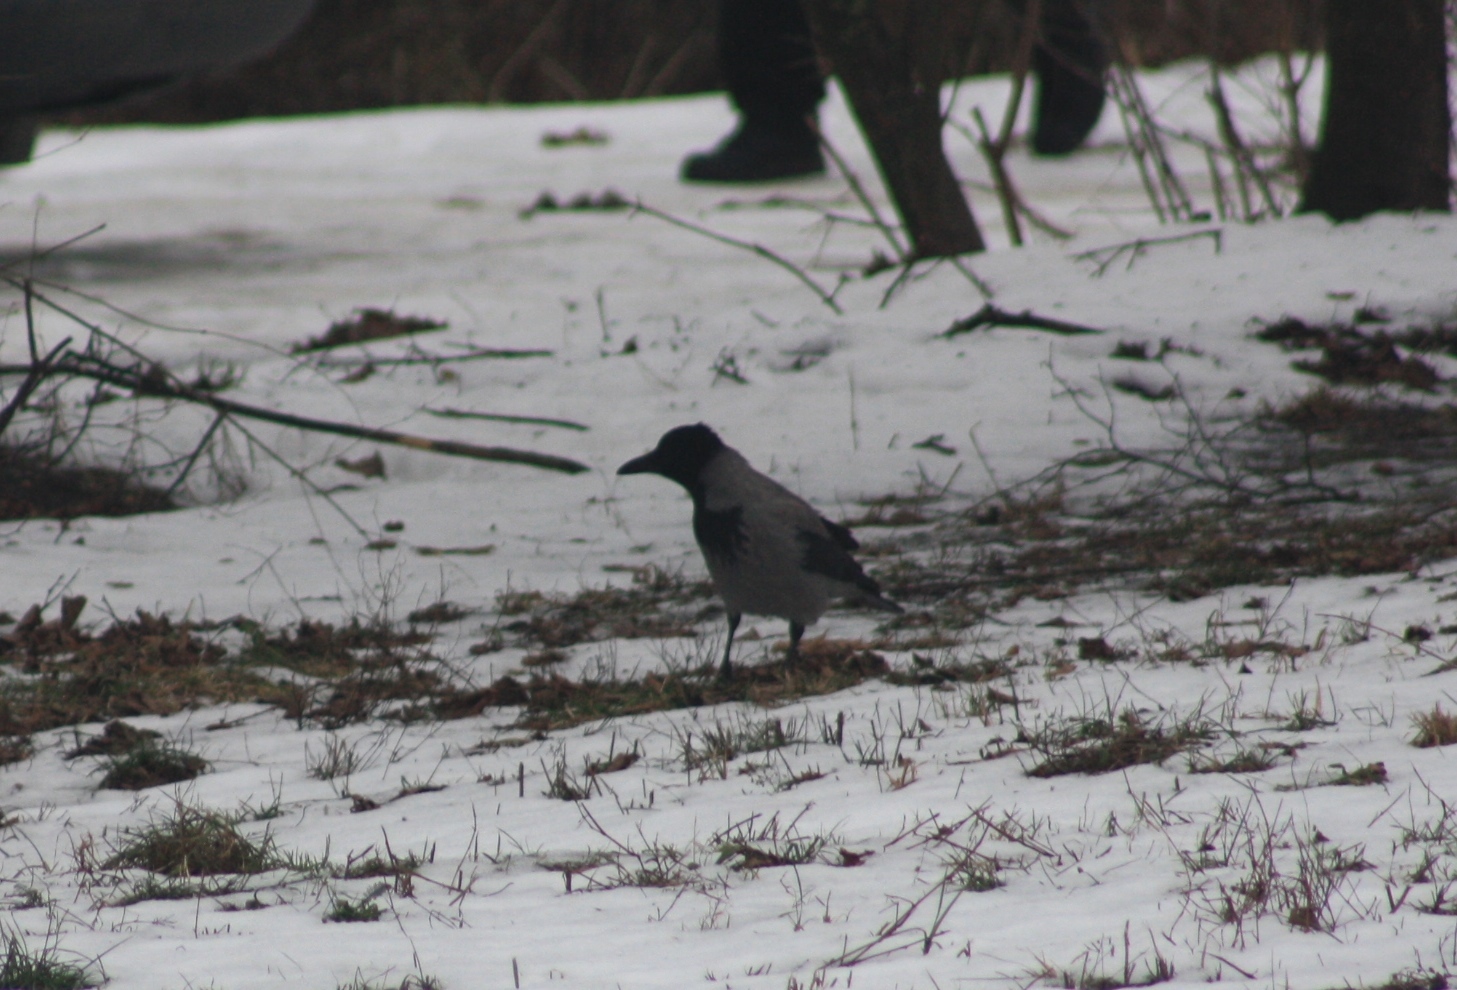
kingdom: Animalia
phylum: Chordata
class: Aves
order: Passeriformes
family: Corvidae
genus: Corvus
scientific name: Corvus cornix
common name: Hooded crow
